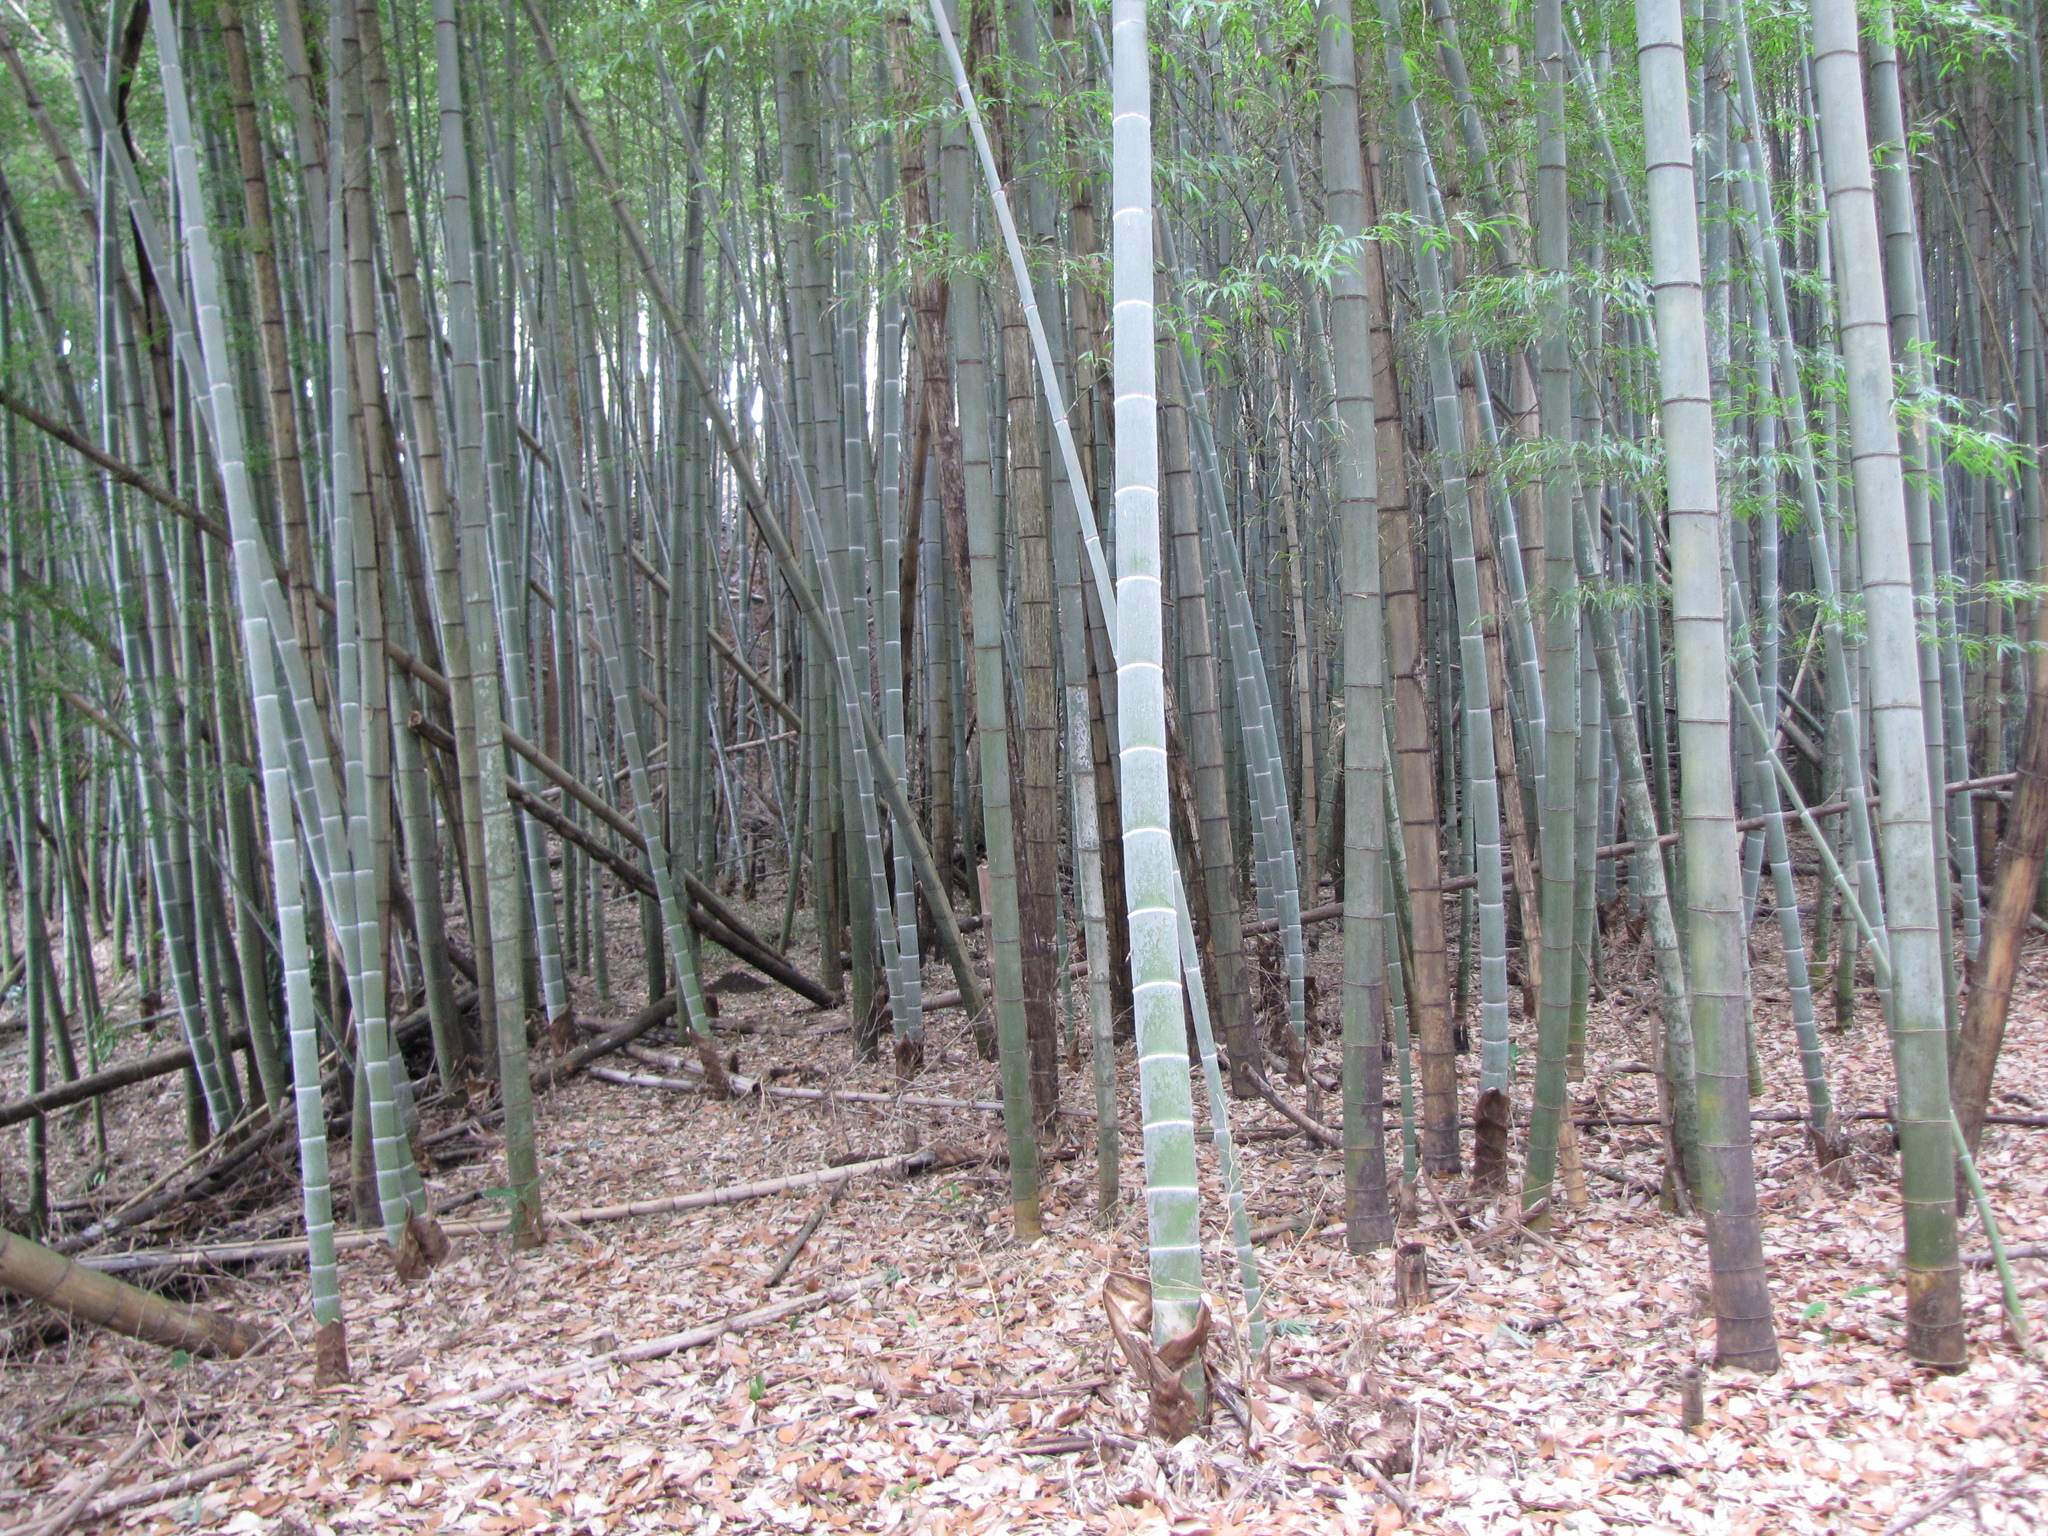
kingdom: Plantae
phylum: Tracheophyta
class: Liliopsida
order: Poales
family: Poaceae
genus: Phyllostachys
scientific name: Phyllostachys edulis
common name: Tortoise shell bamboo
